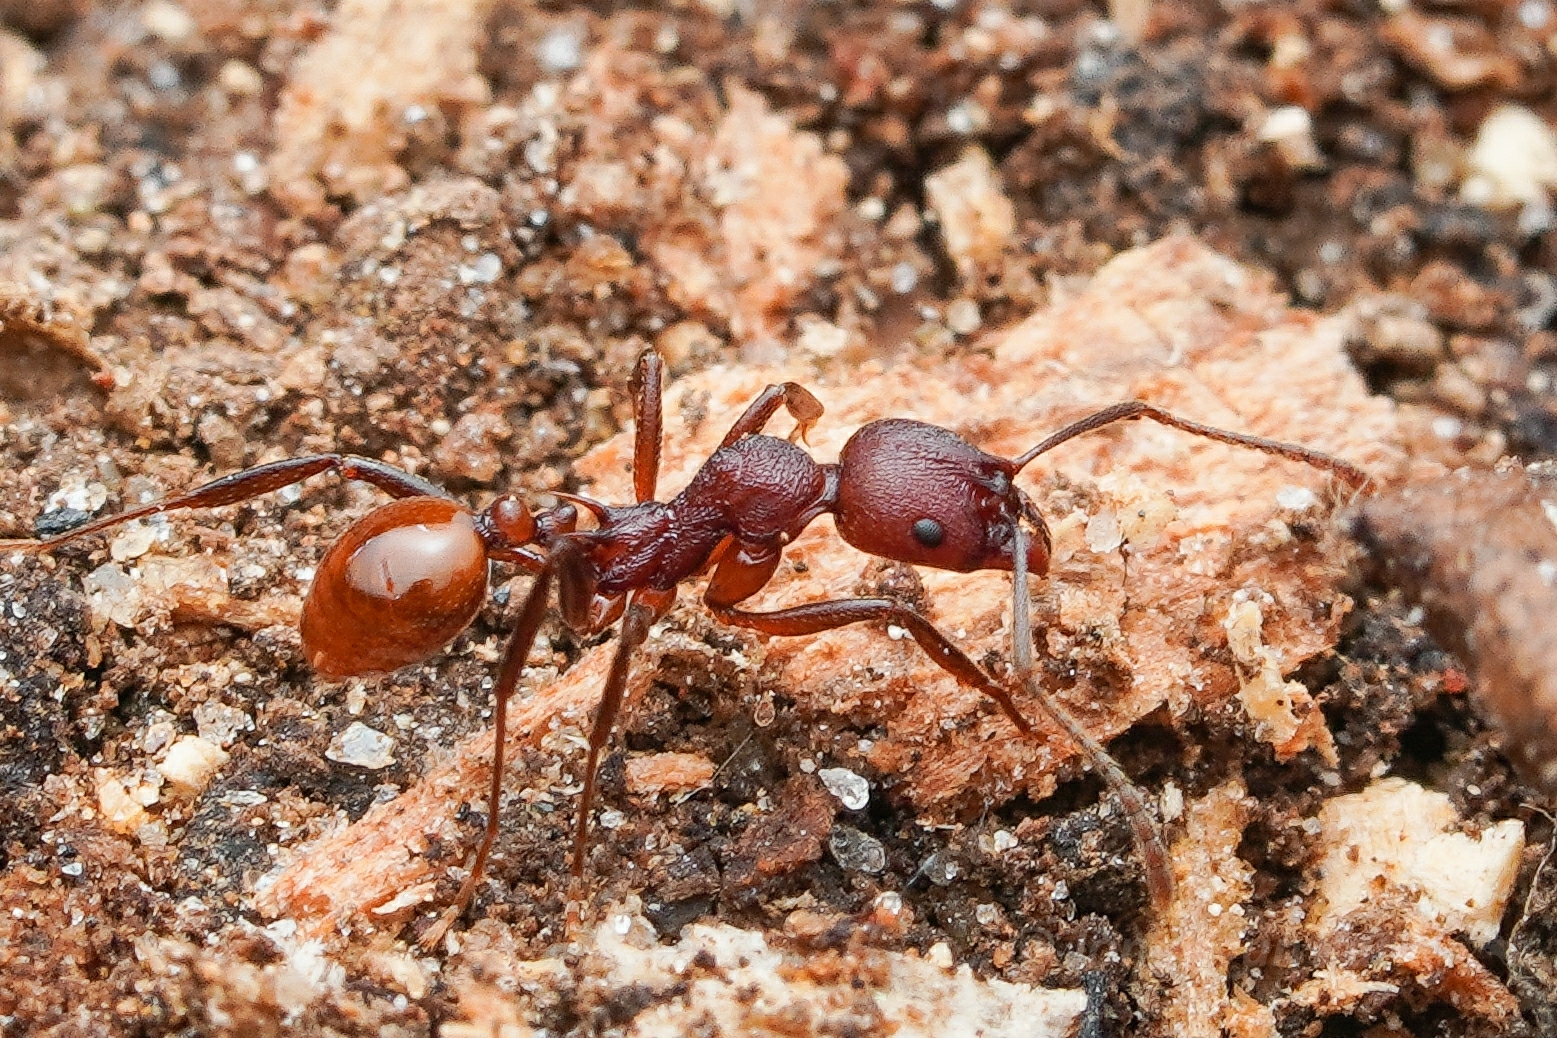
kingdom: Animalia
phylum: Arthropoda
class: Insecta
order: Hymenoptera
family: Formicidae
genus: Aphaenogaster
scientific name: Aphaenogaster tennesseensis
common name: Tennessee thread-waisted ant
